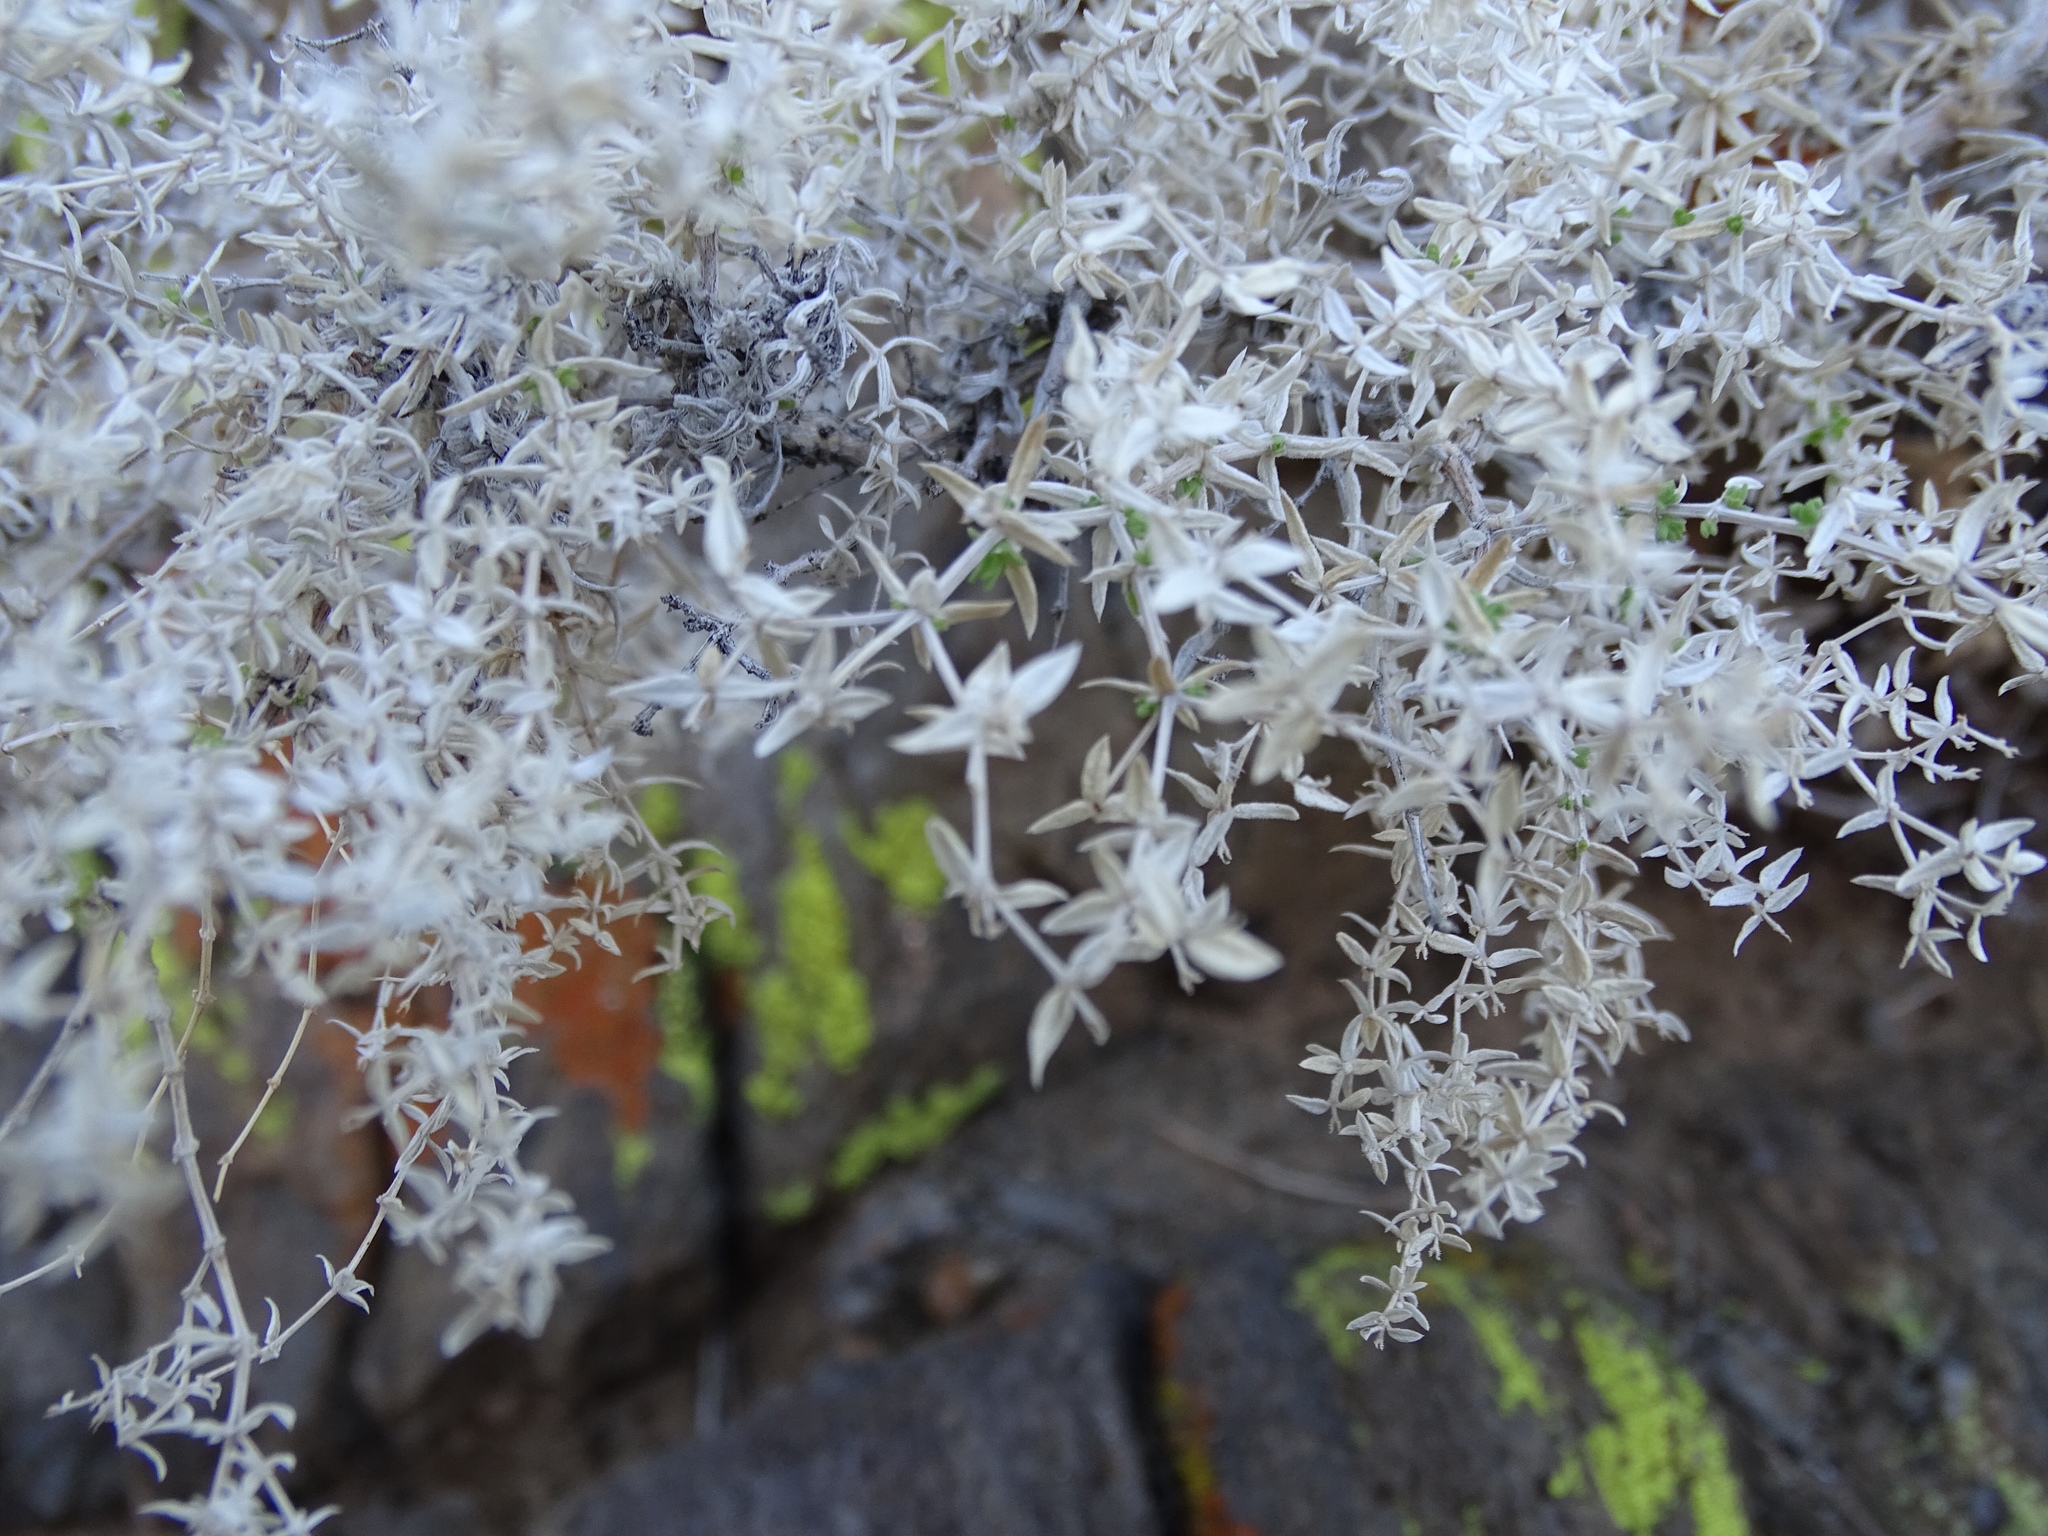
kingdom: Plantae
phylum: Tracheophyta
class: Magnoliopsida
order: Gentianales
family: Rubiaceae
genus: Galium
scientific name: Galium stellatum
